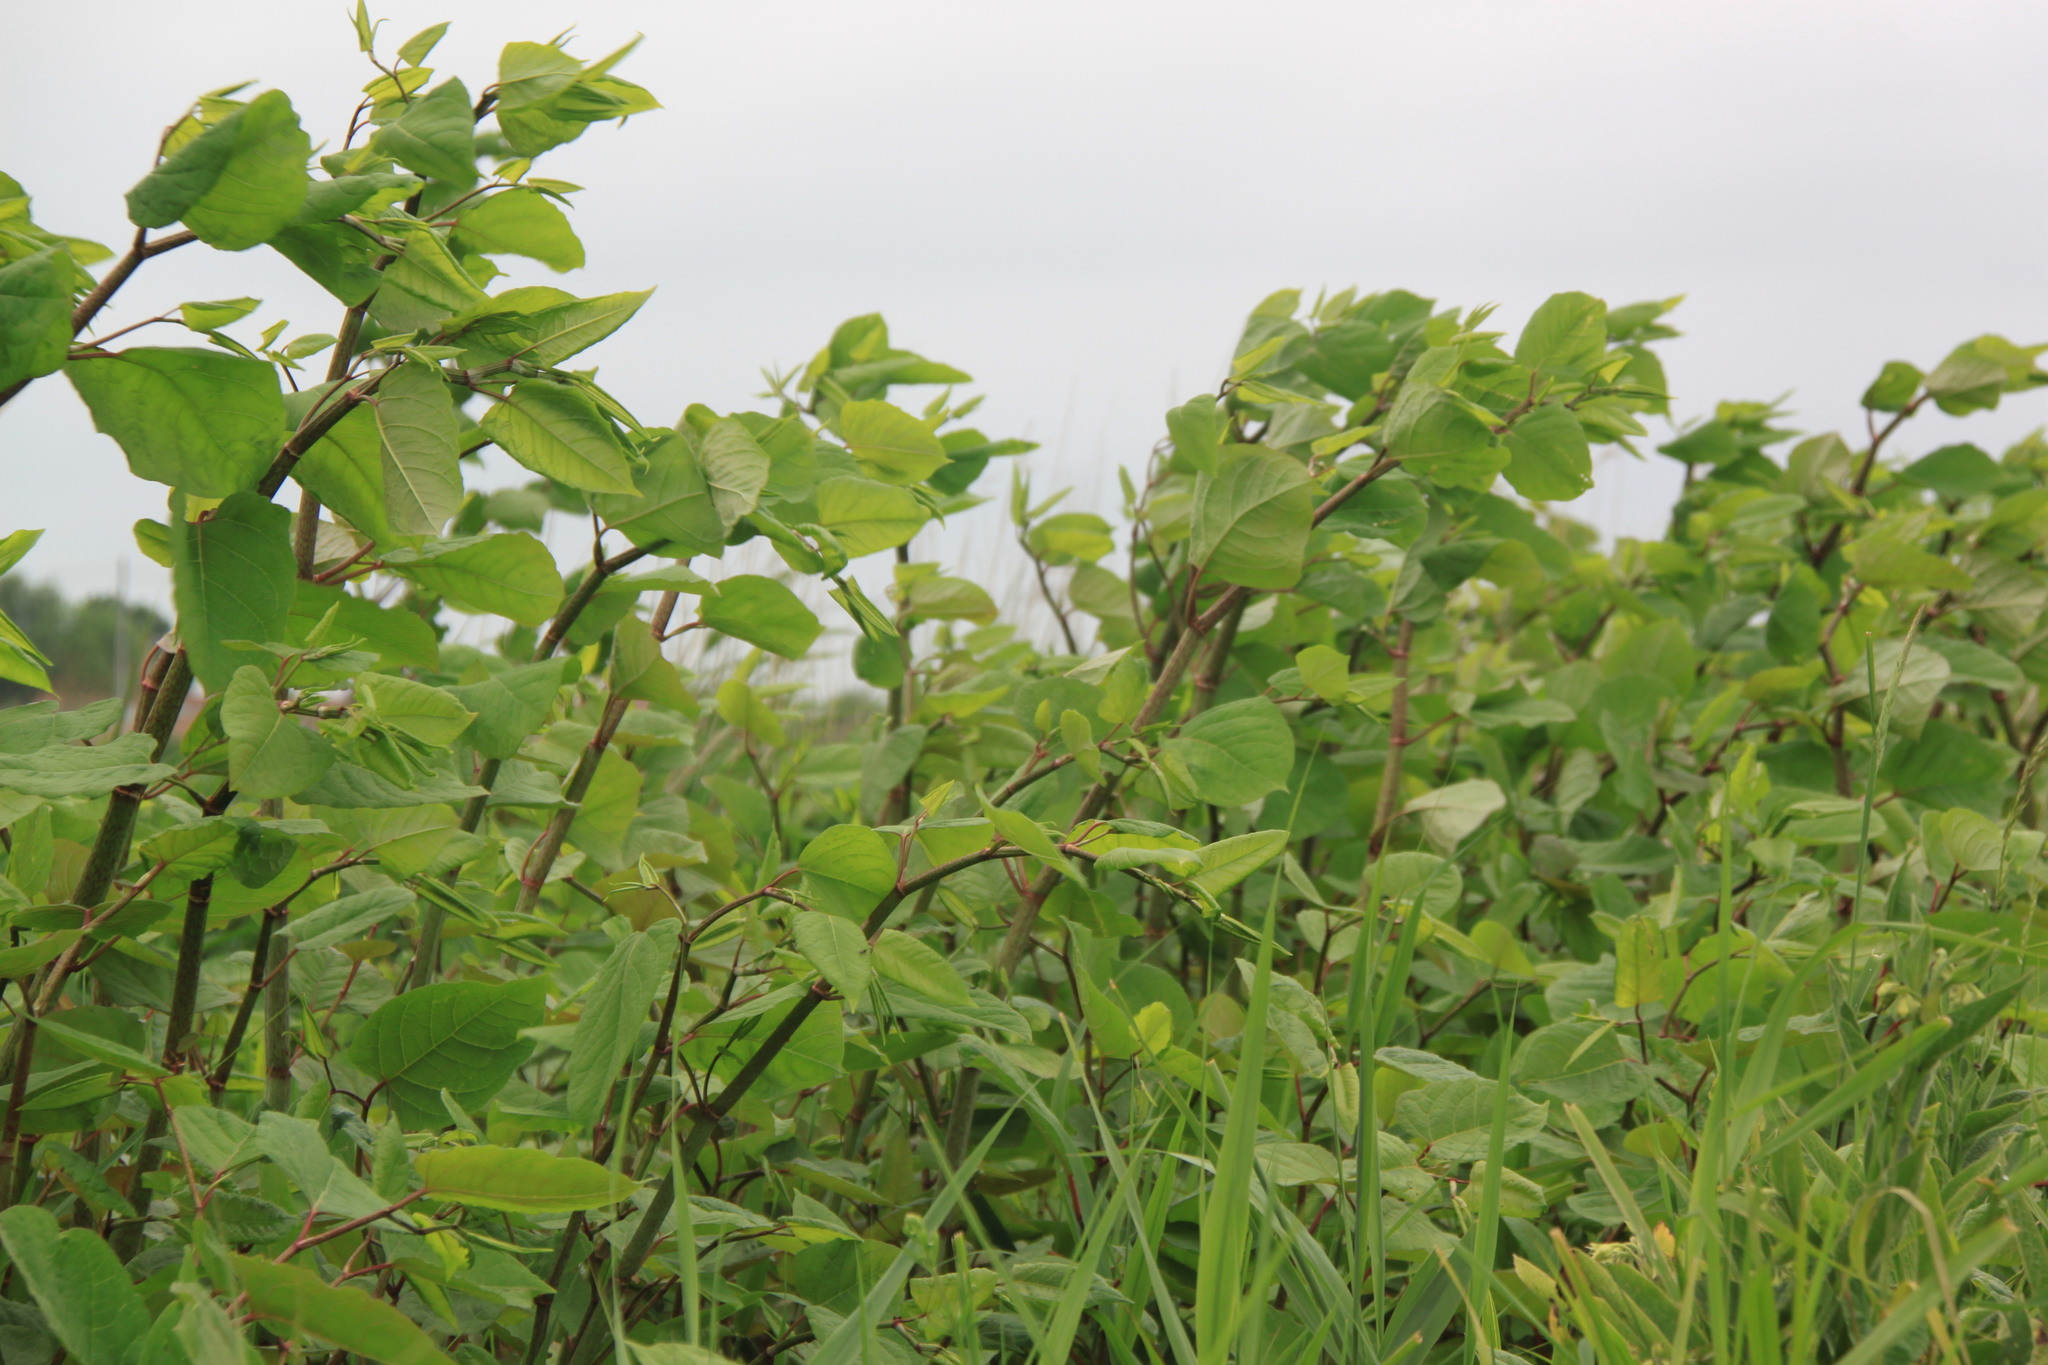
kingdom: Plantae
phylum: Tracheophyta
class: Magnoliopsida
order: Caryophyllales
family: Polygonaceae
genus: Reynoutria
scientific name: Reynoutria bohemica
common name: Bohemian knotweed
